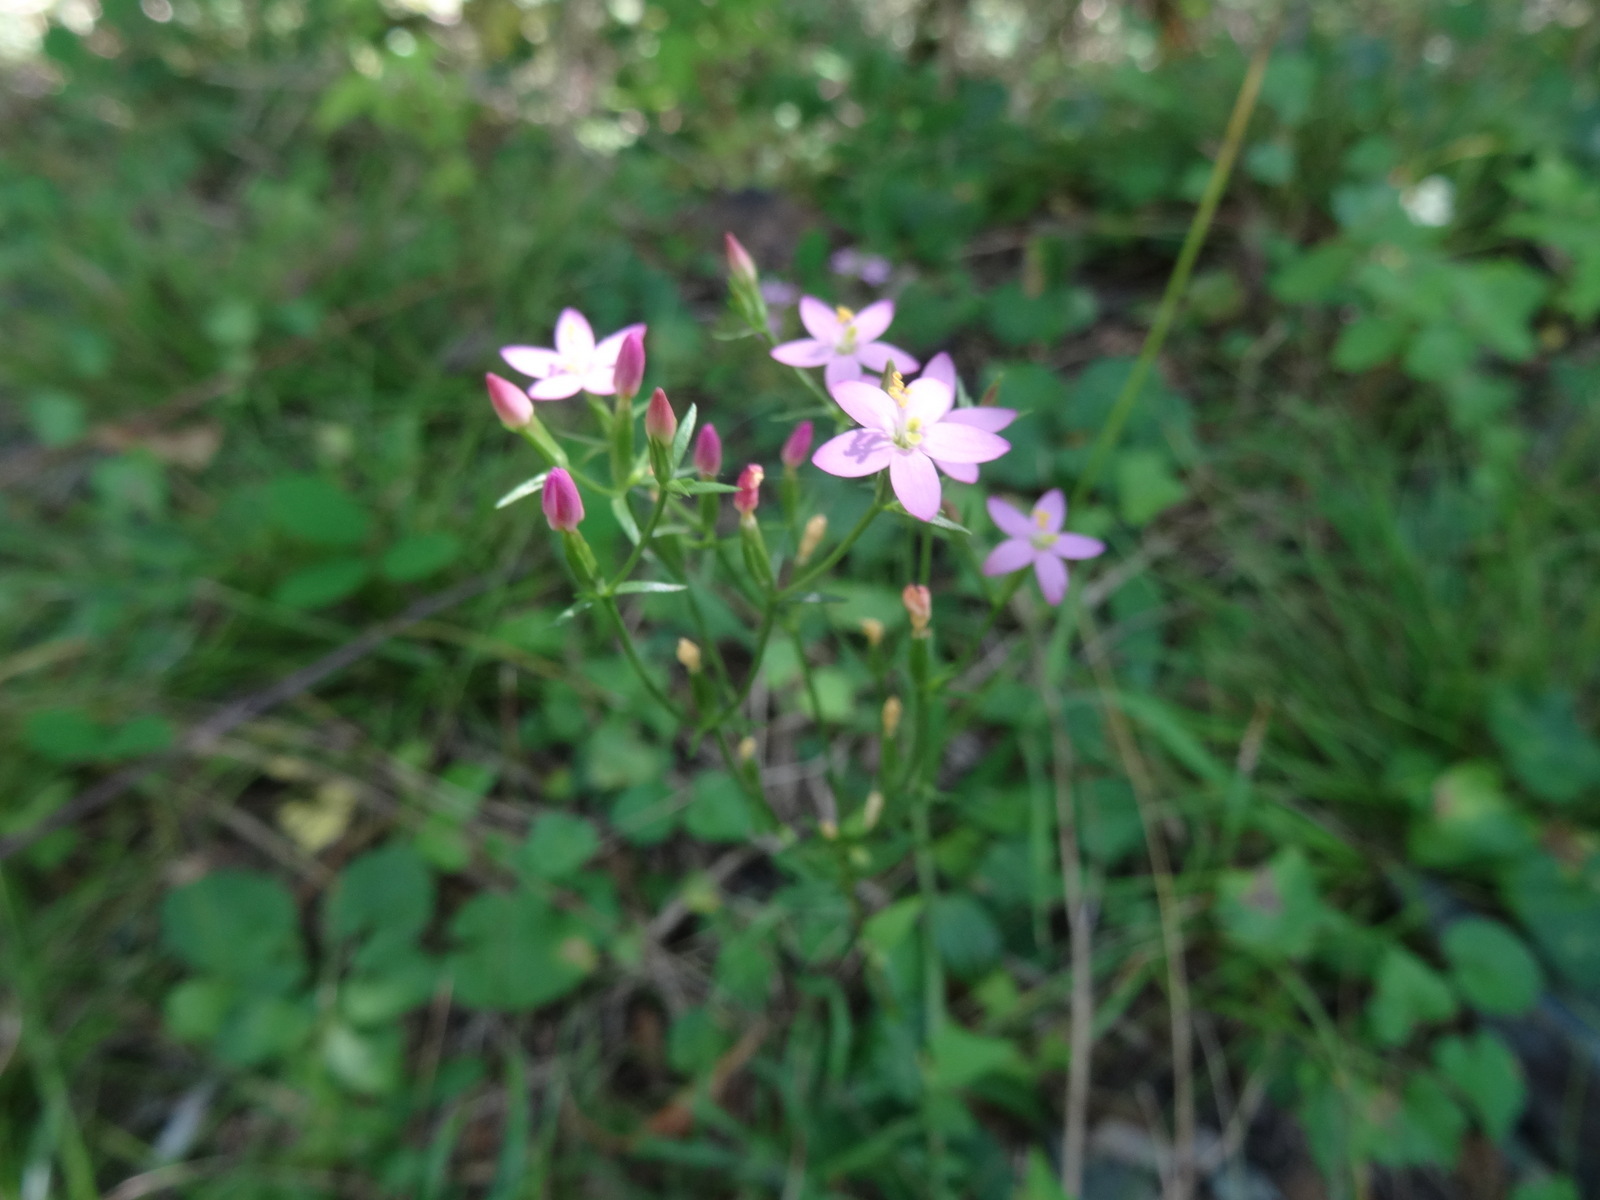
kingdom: Plantae
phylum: Tracheophyta
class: Magnoliopsida
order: Gentianales
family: Gentianaceae
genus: Centaurium
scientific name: Centaurium erythraea
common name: Common centaury
